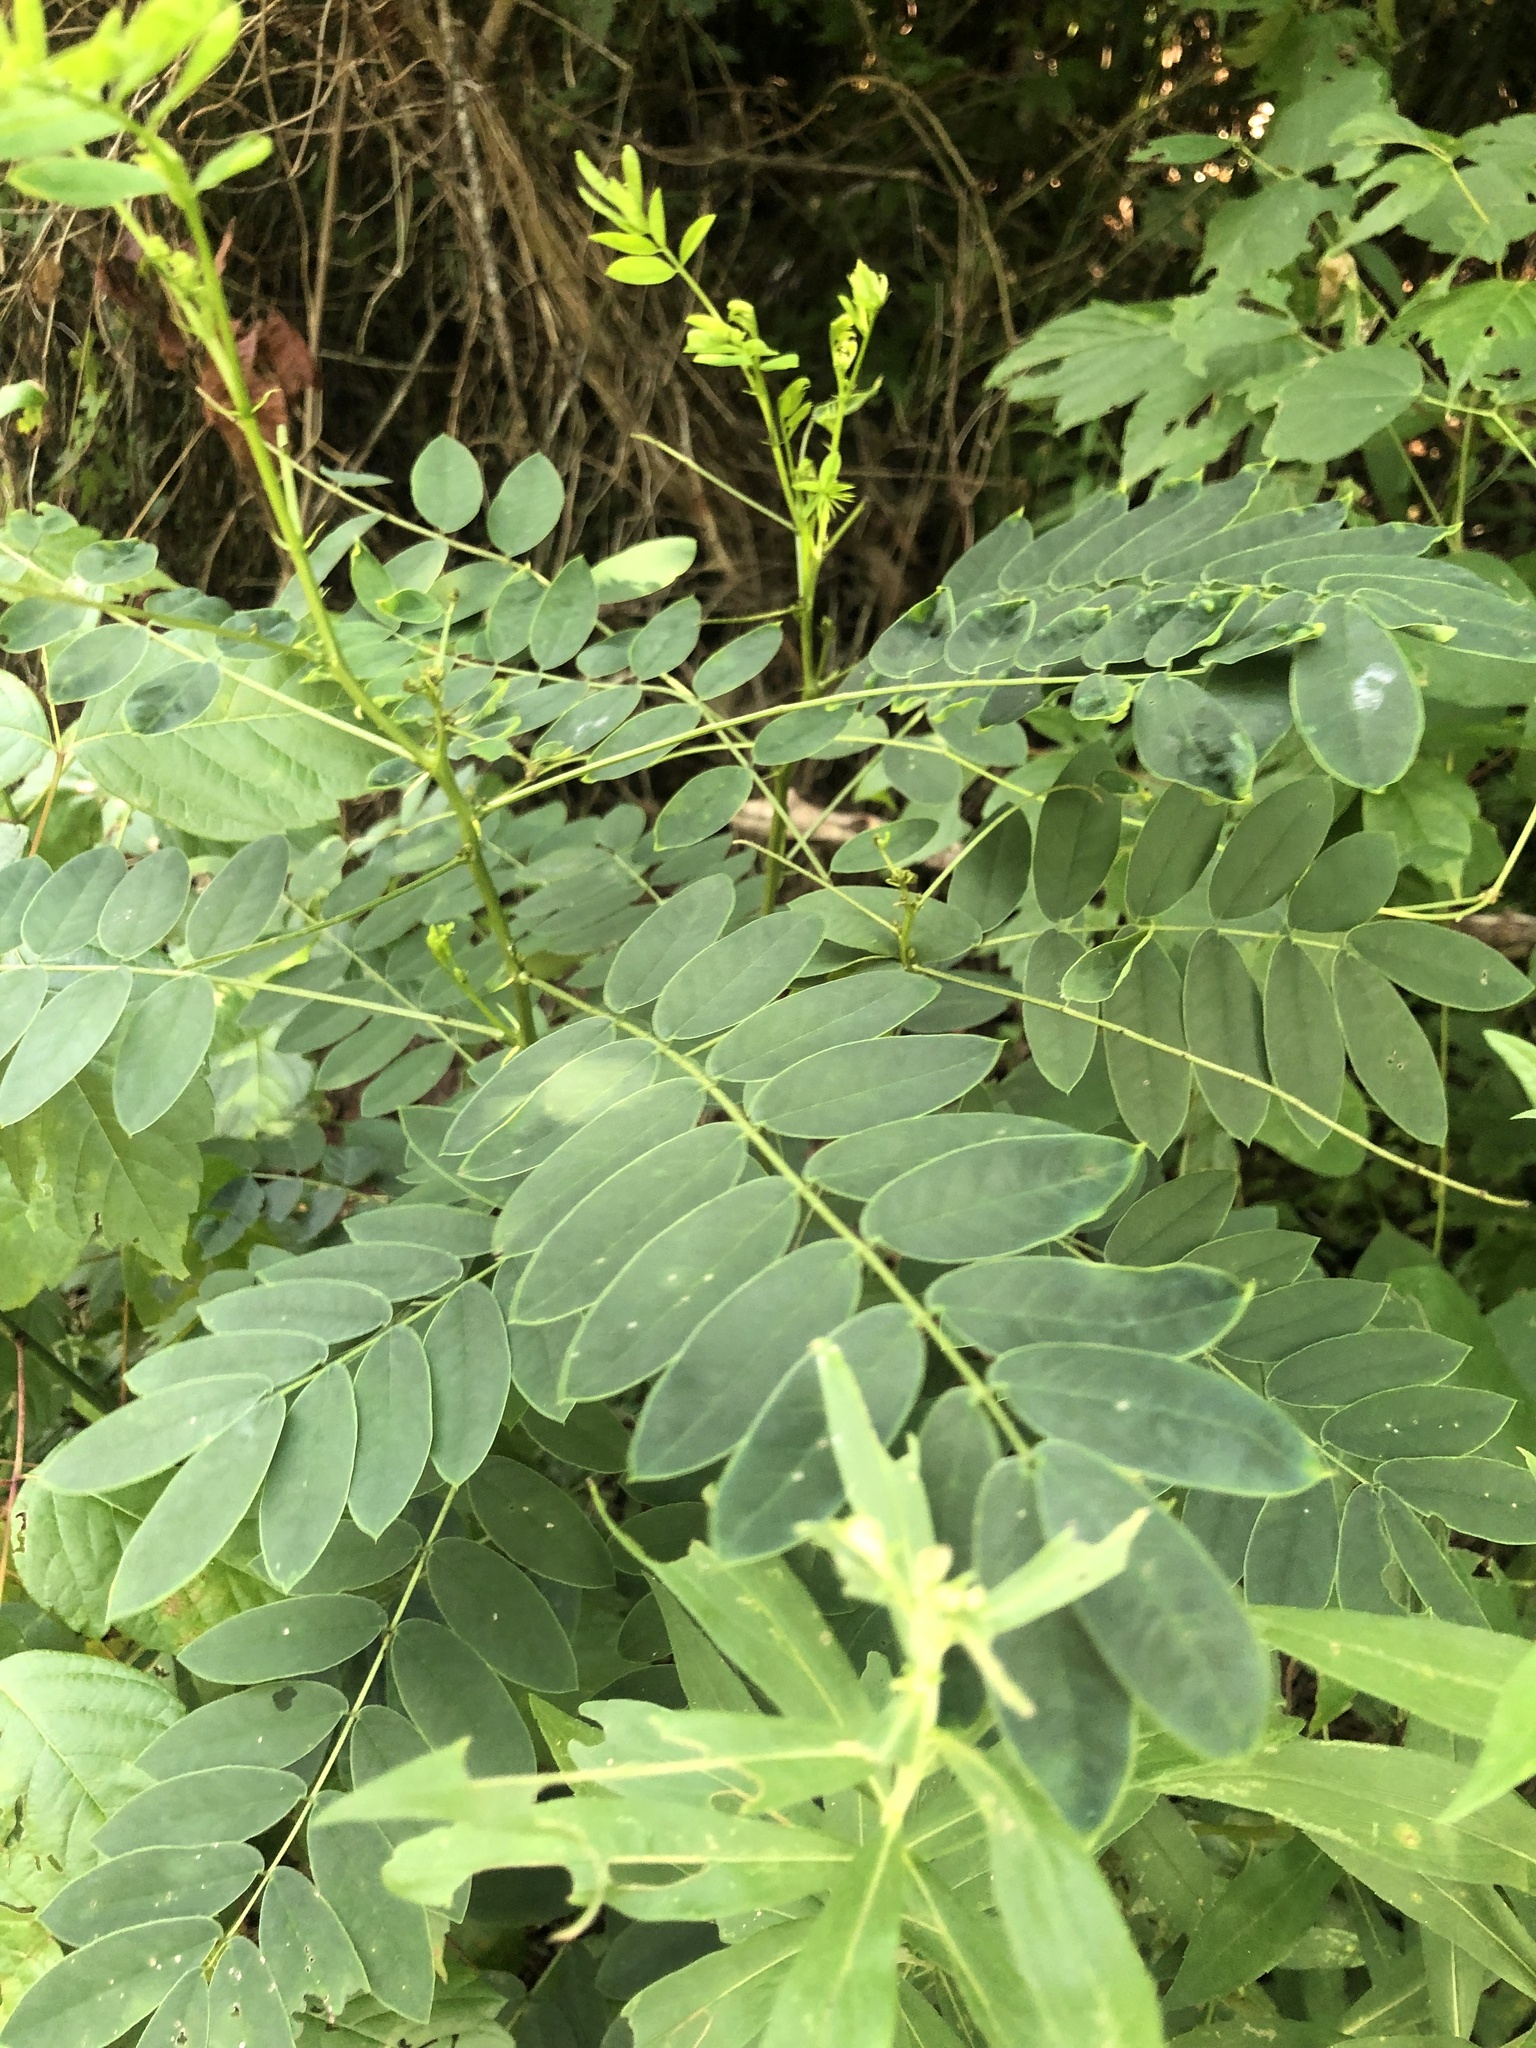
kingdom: Plantae
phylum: Tracheophyta
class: Magnoliopsida
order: Fabales
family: Fabaceae
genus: Senna
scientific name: Senna marilandica
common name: American senna
